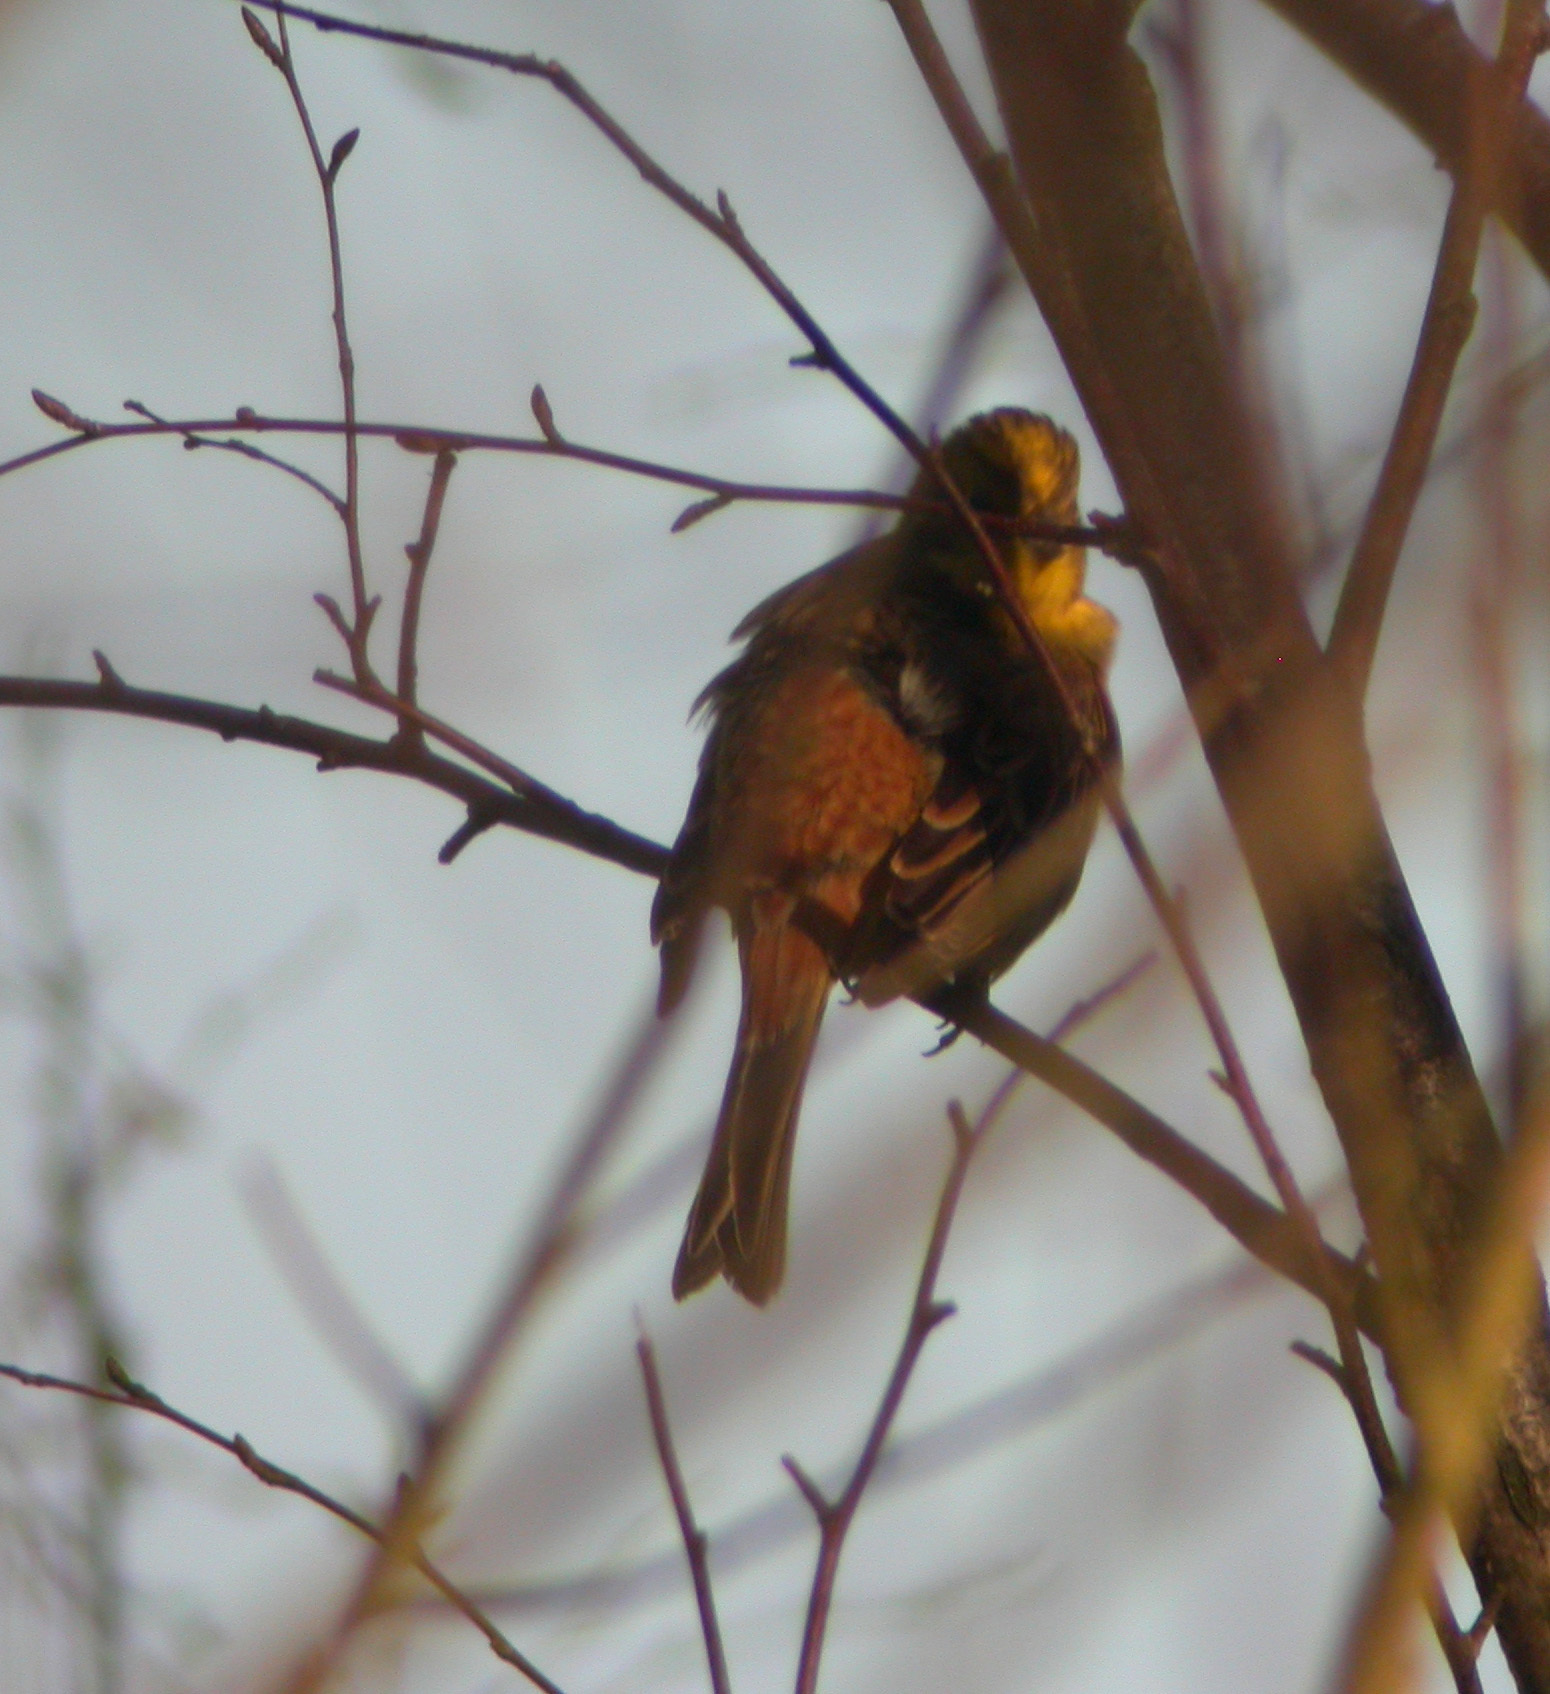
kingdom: Animalia
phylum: Chordata
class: Aves
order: Passeriformes
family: Emberizidae
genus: Emberiza
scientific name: Emberiza citrinella
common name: Yellowhammer
